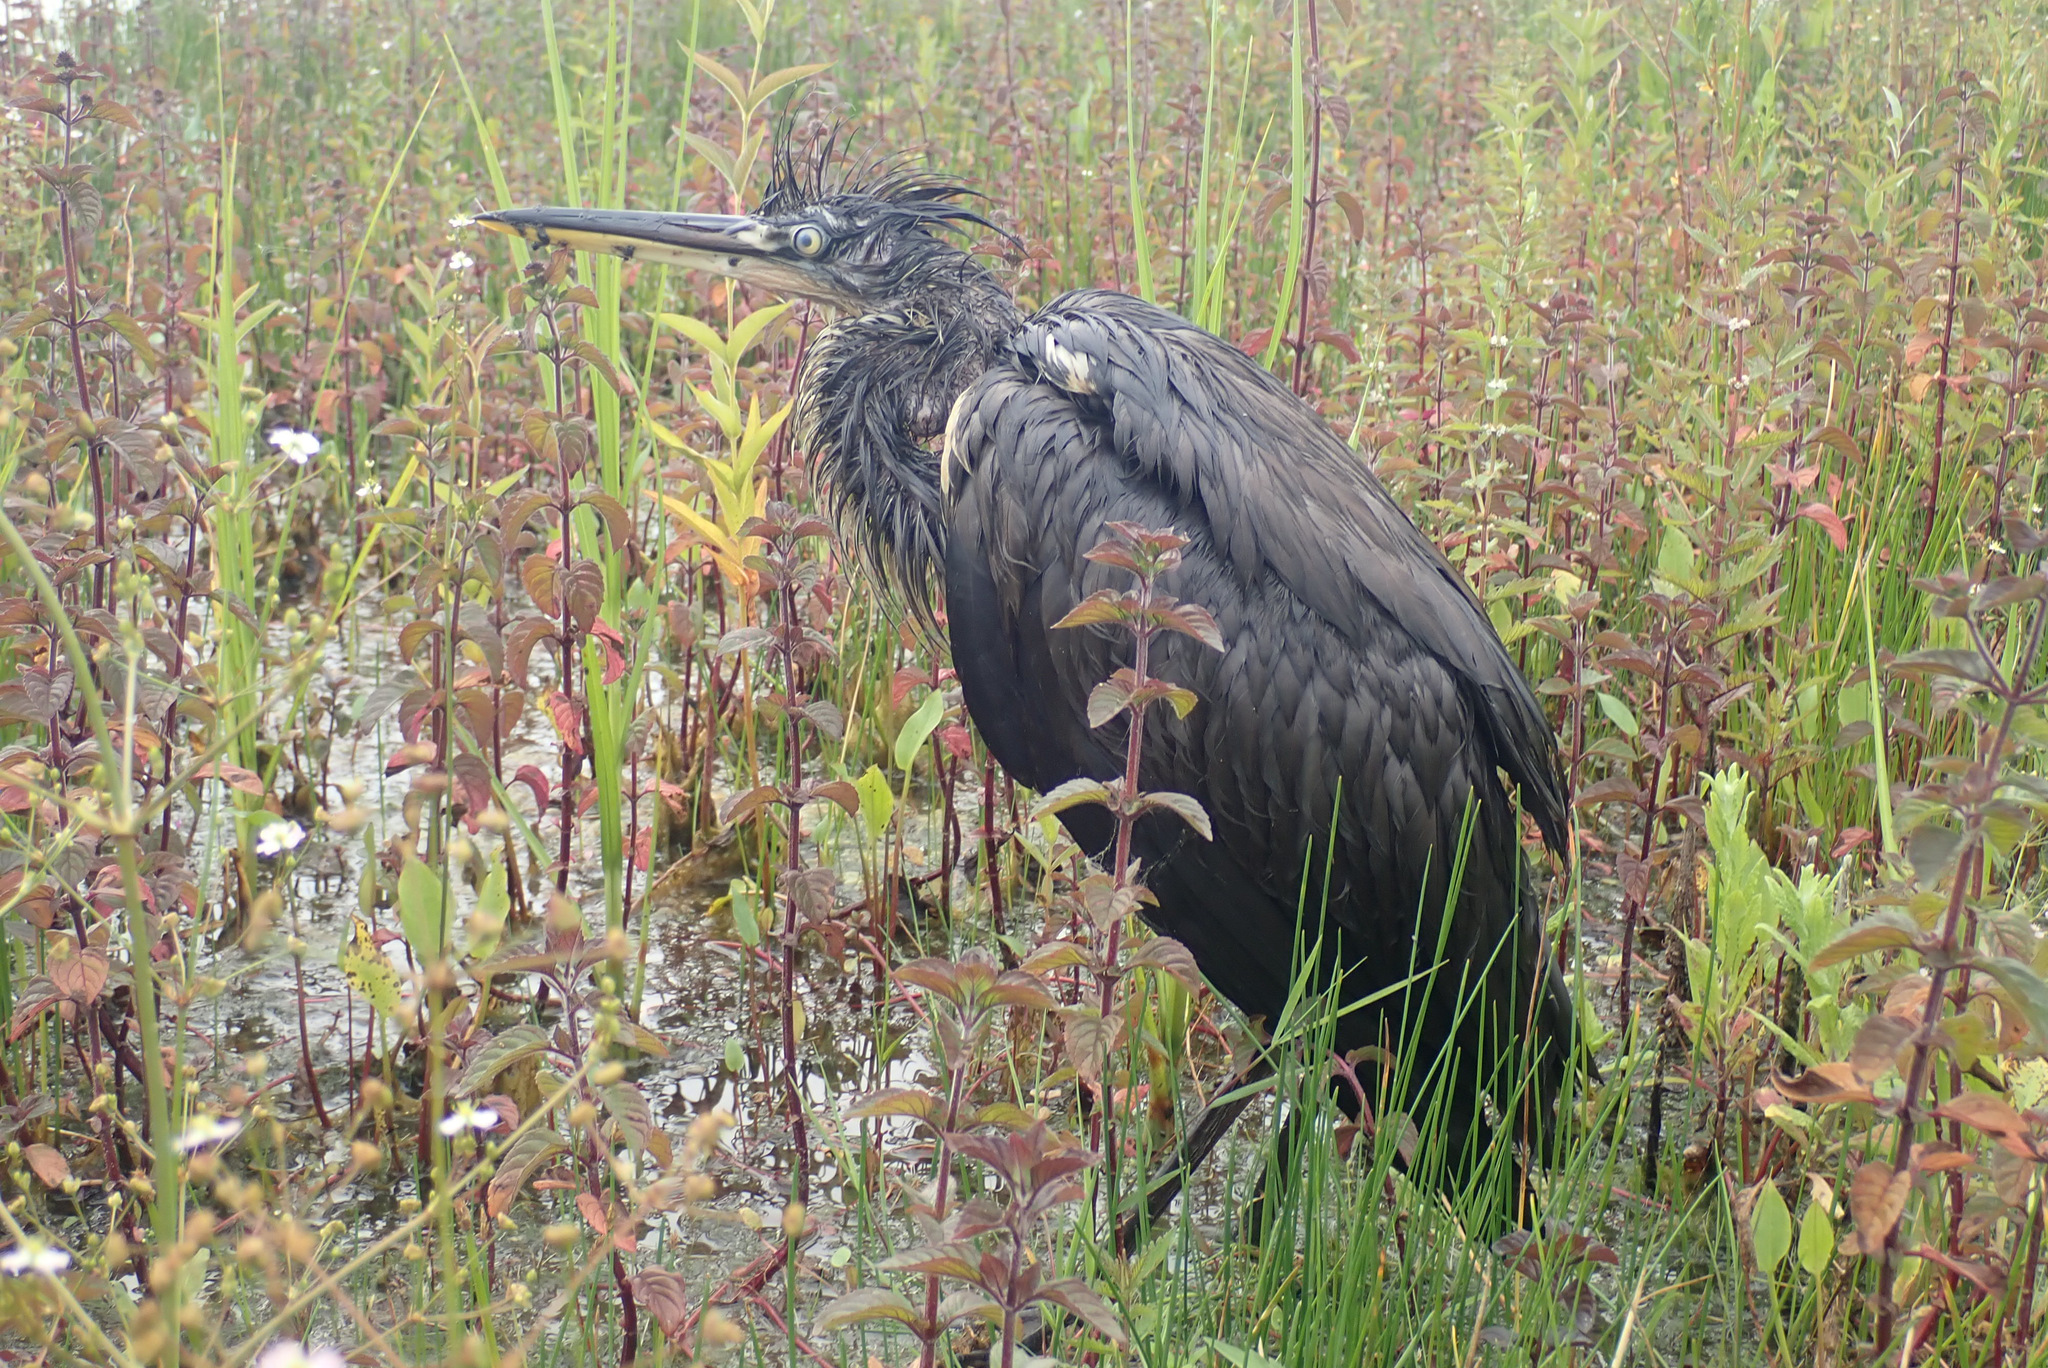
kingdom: Animalia
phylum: Chordata
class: Aves
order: Pelecaniformes
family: Ardeidae
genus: Ardea
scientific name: Ardea cinerea
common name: Grey heron
